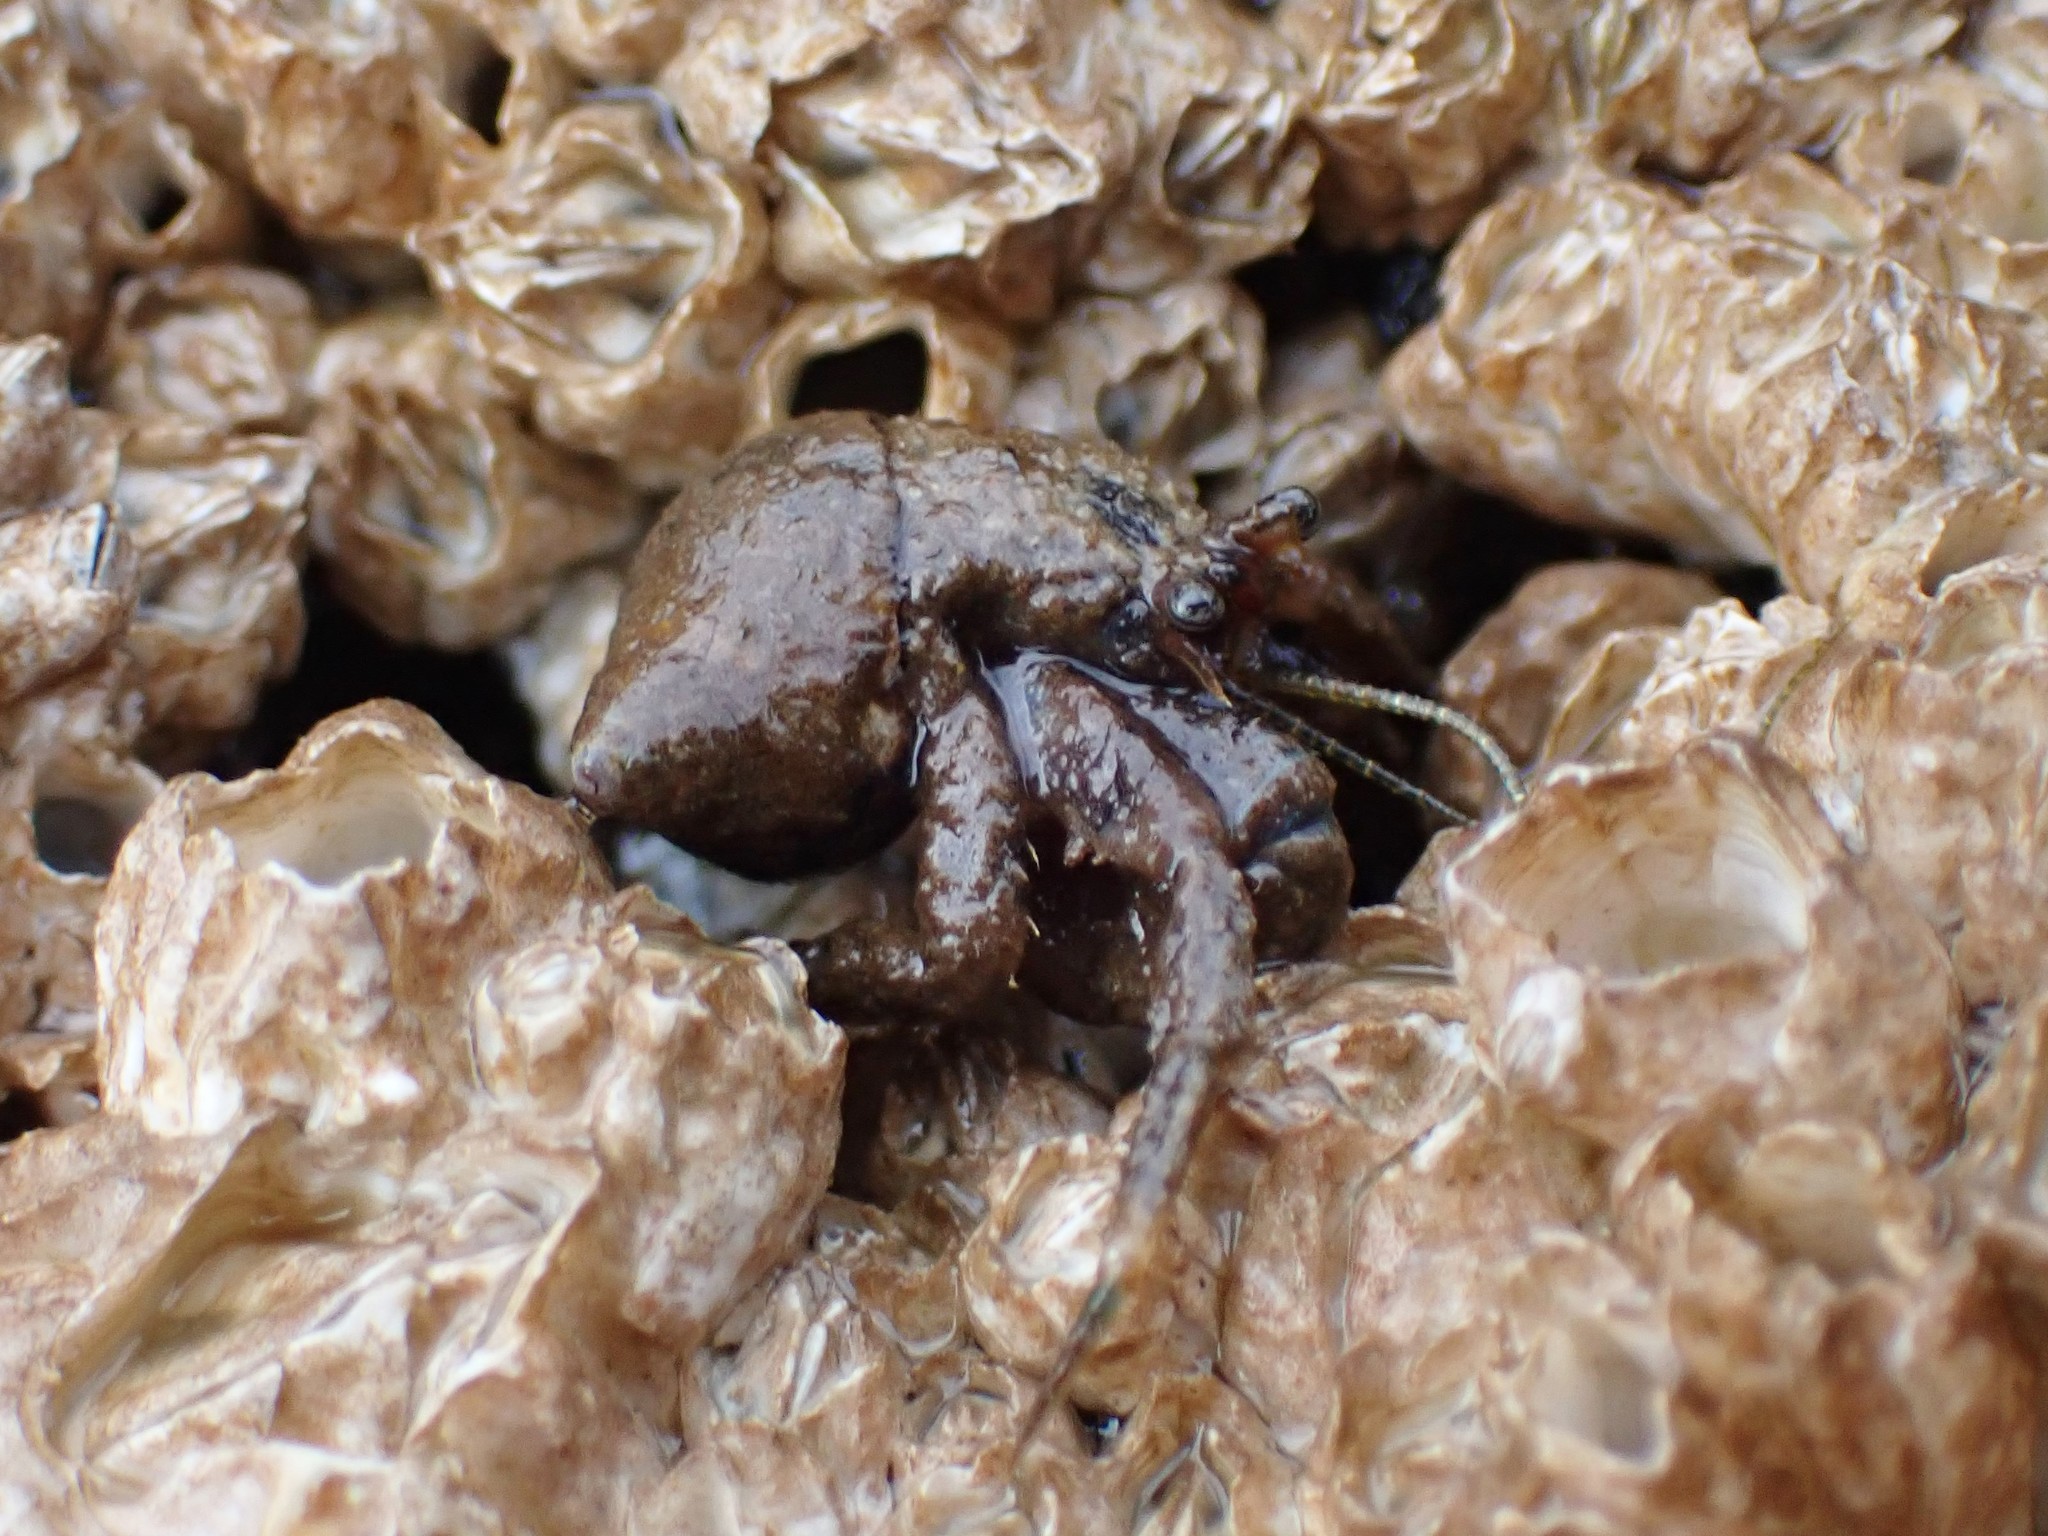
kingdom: Animalia
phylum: Arthropoda
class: Malacostraca
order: Decapoda
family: Paguridae
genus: Pagurus
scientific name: Pagurus hirsutiusculus
